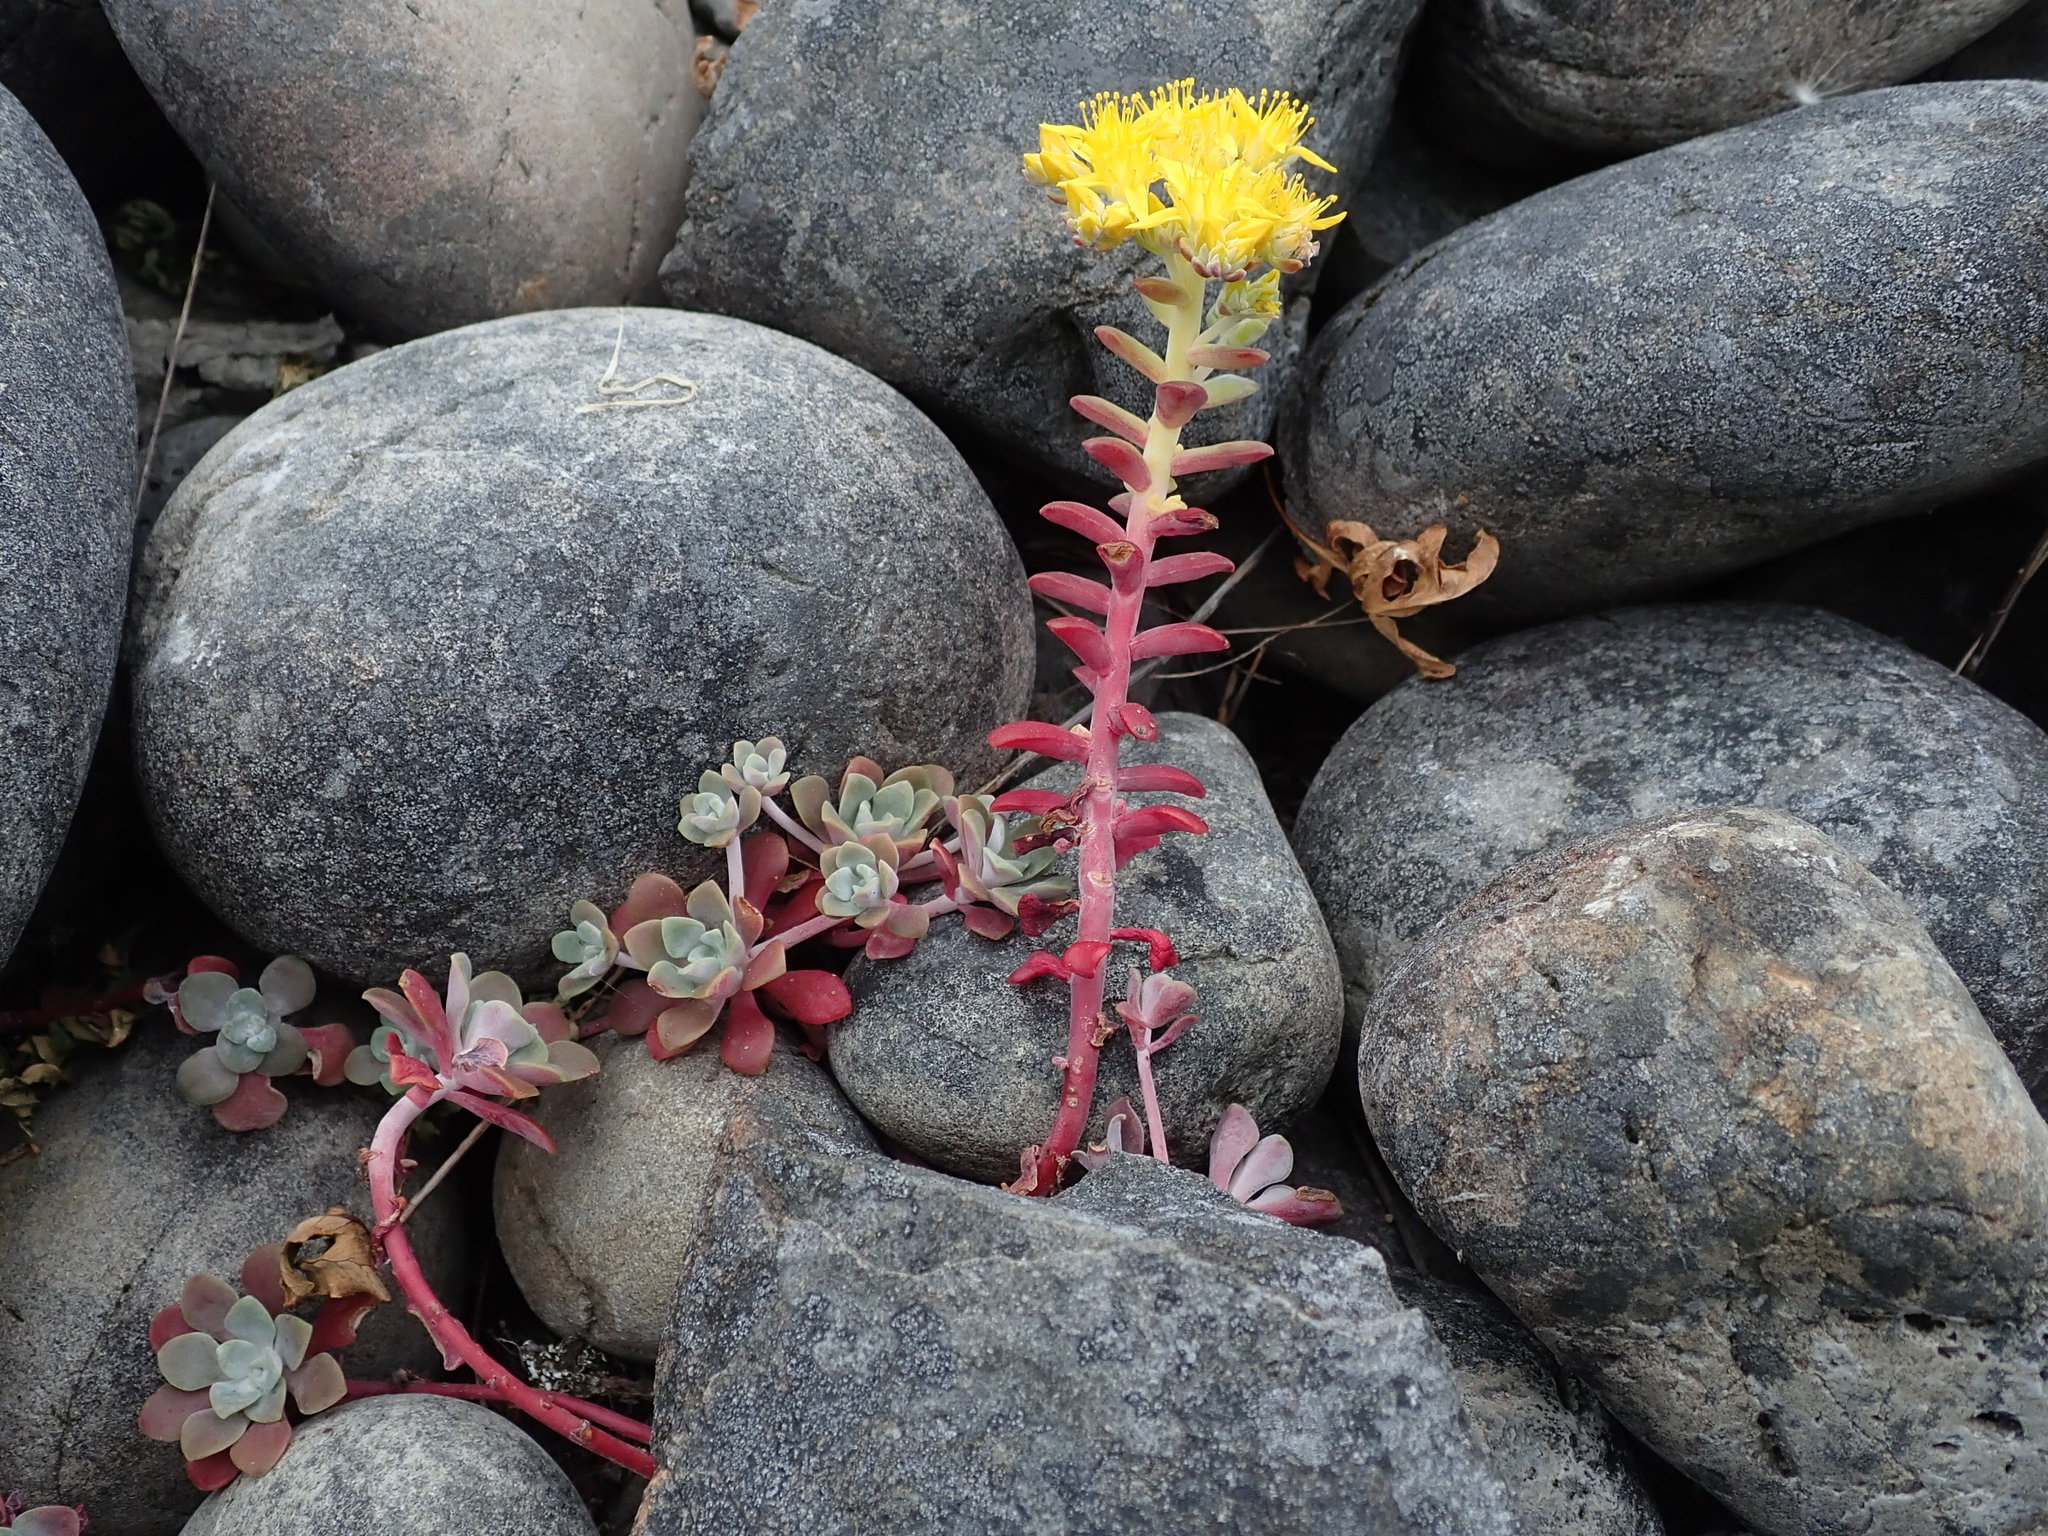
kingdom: Plantae
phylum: Tracheophyta
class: Magnoliopsida
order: Saxifragales
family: Crassulaceae
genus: Sedum
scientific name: Sedum spathulifolium
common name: Colorado stonecrop
